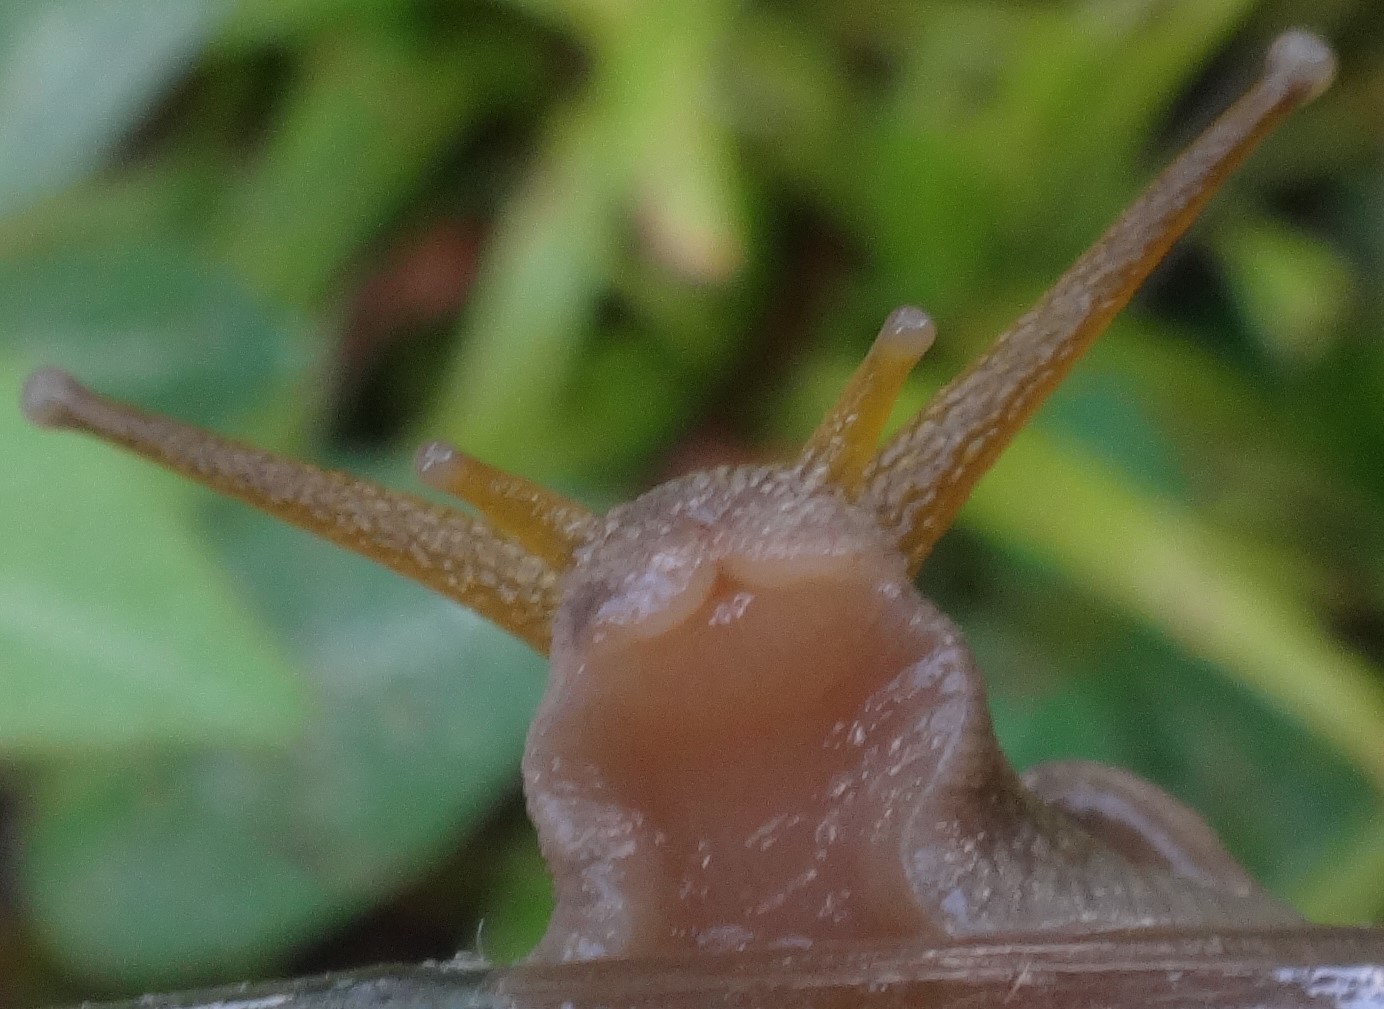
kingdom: Animalia
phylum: Mollusca
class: Gastropoda
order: Stylommatophora
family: Amphibulimidae
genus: Plekocheilus
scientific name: Plekocheilus distortus
